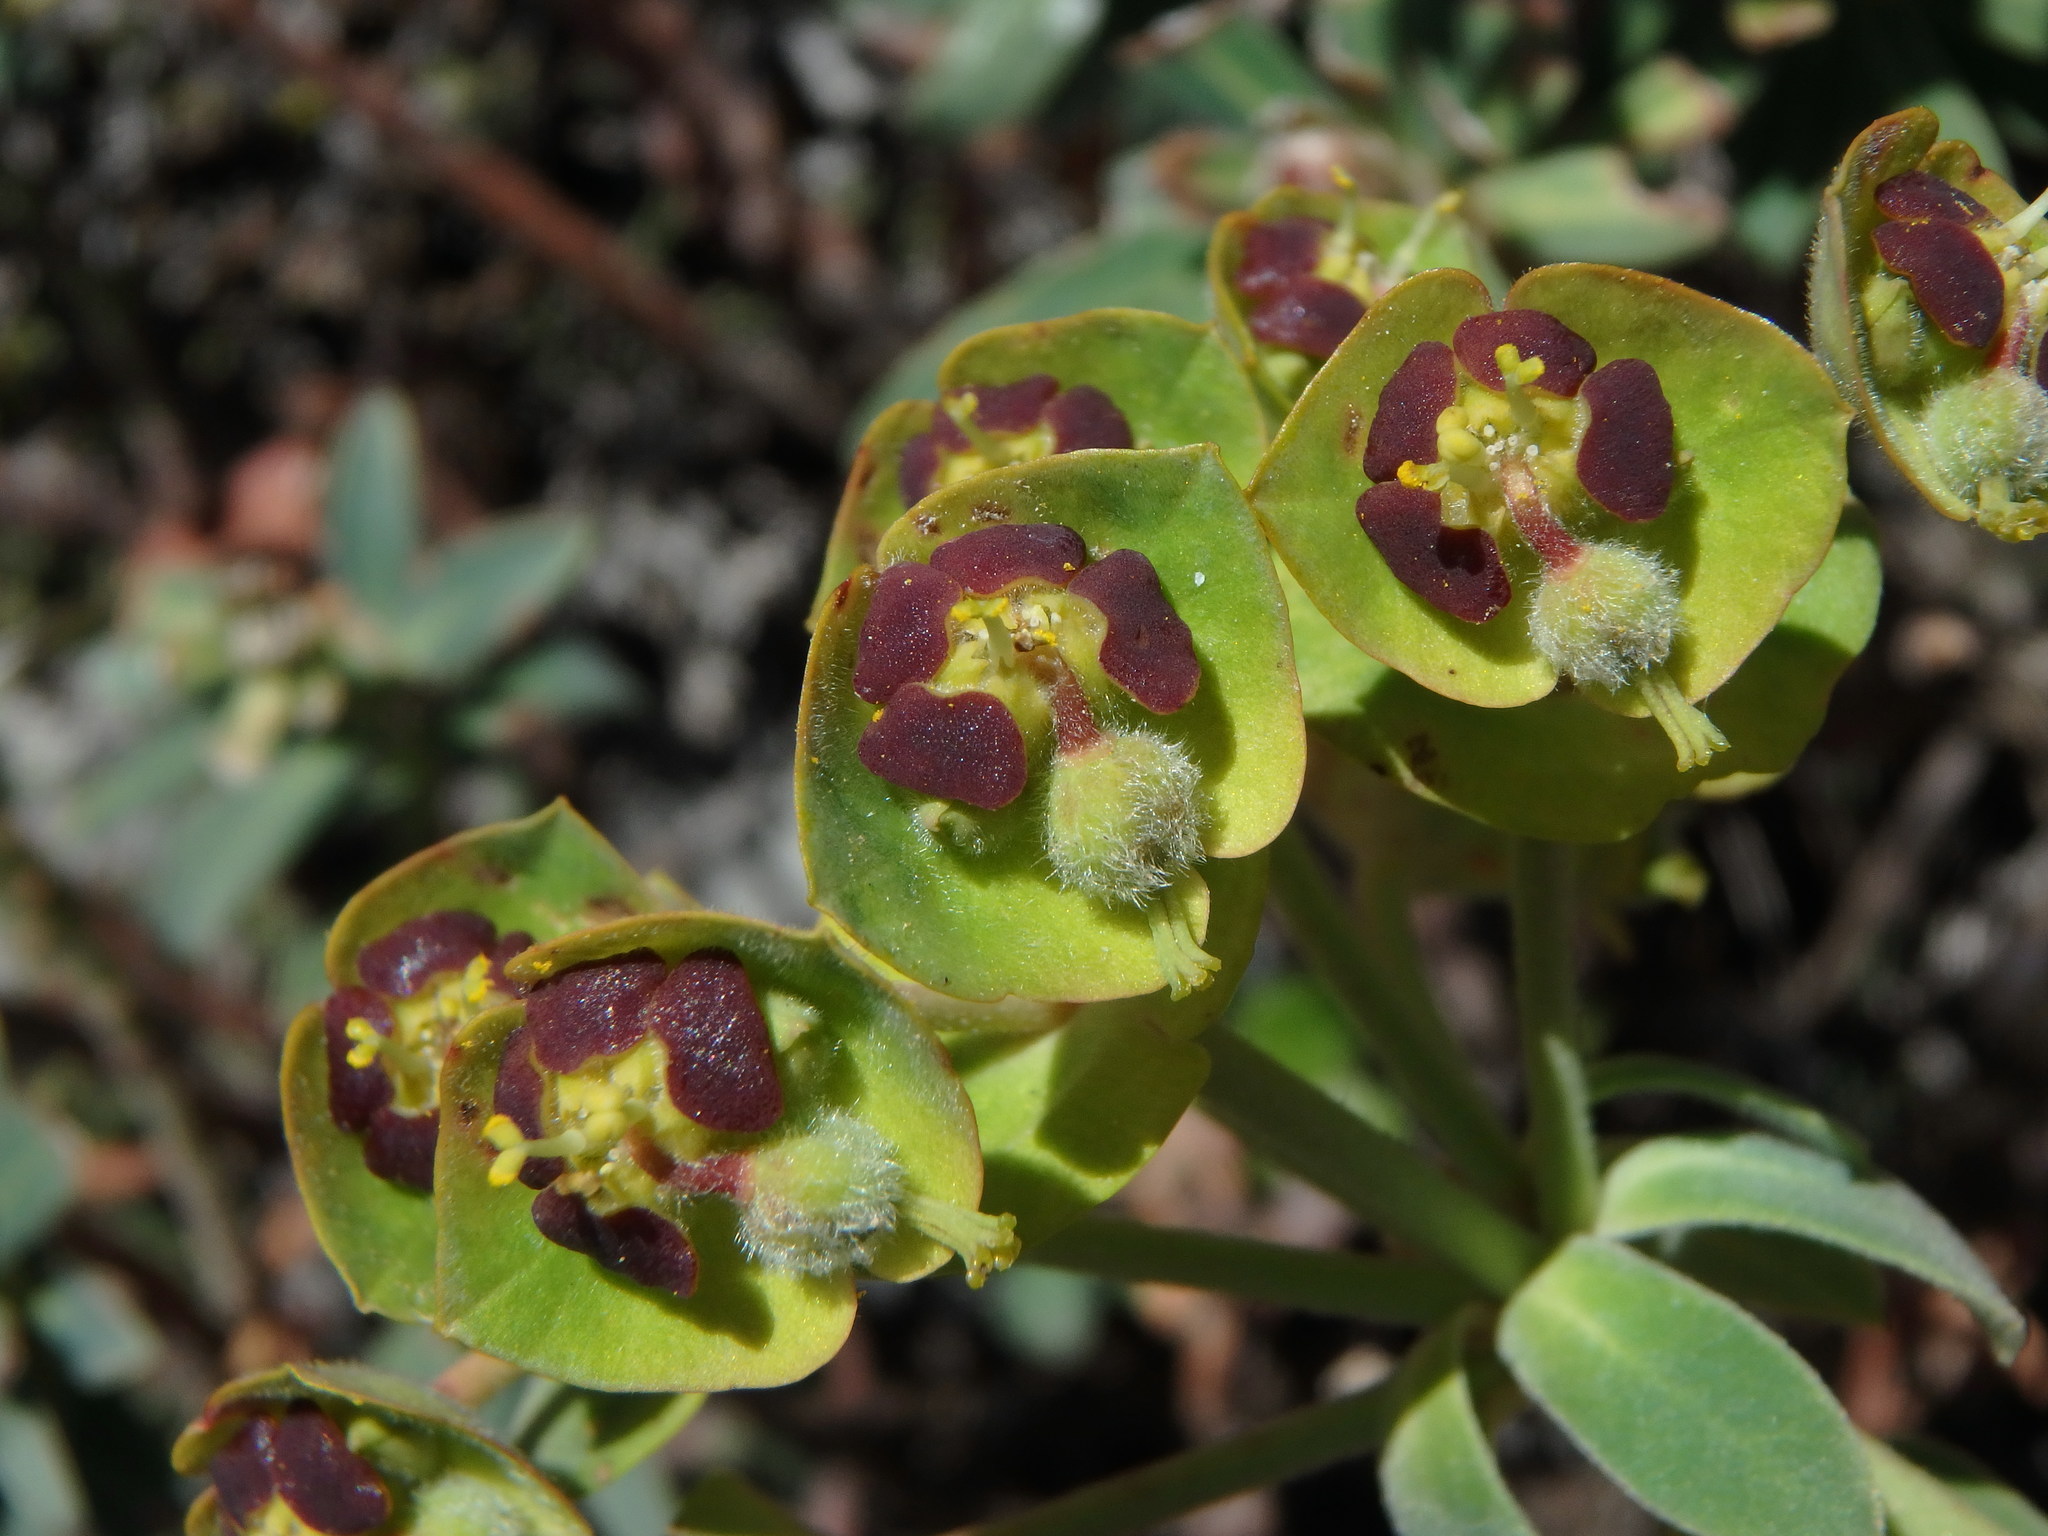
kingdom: Plantae
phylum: Tracheophyta
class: Magnoliopsida
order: Malpighiales
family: Euphorbiaceae
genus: Euphorbia
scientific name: Euphorbia characias
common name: Mediterranean spurge
